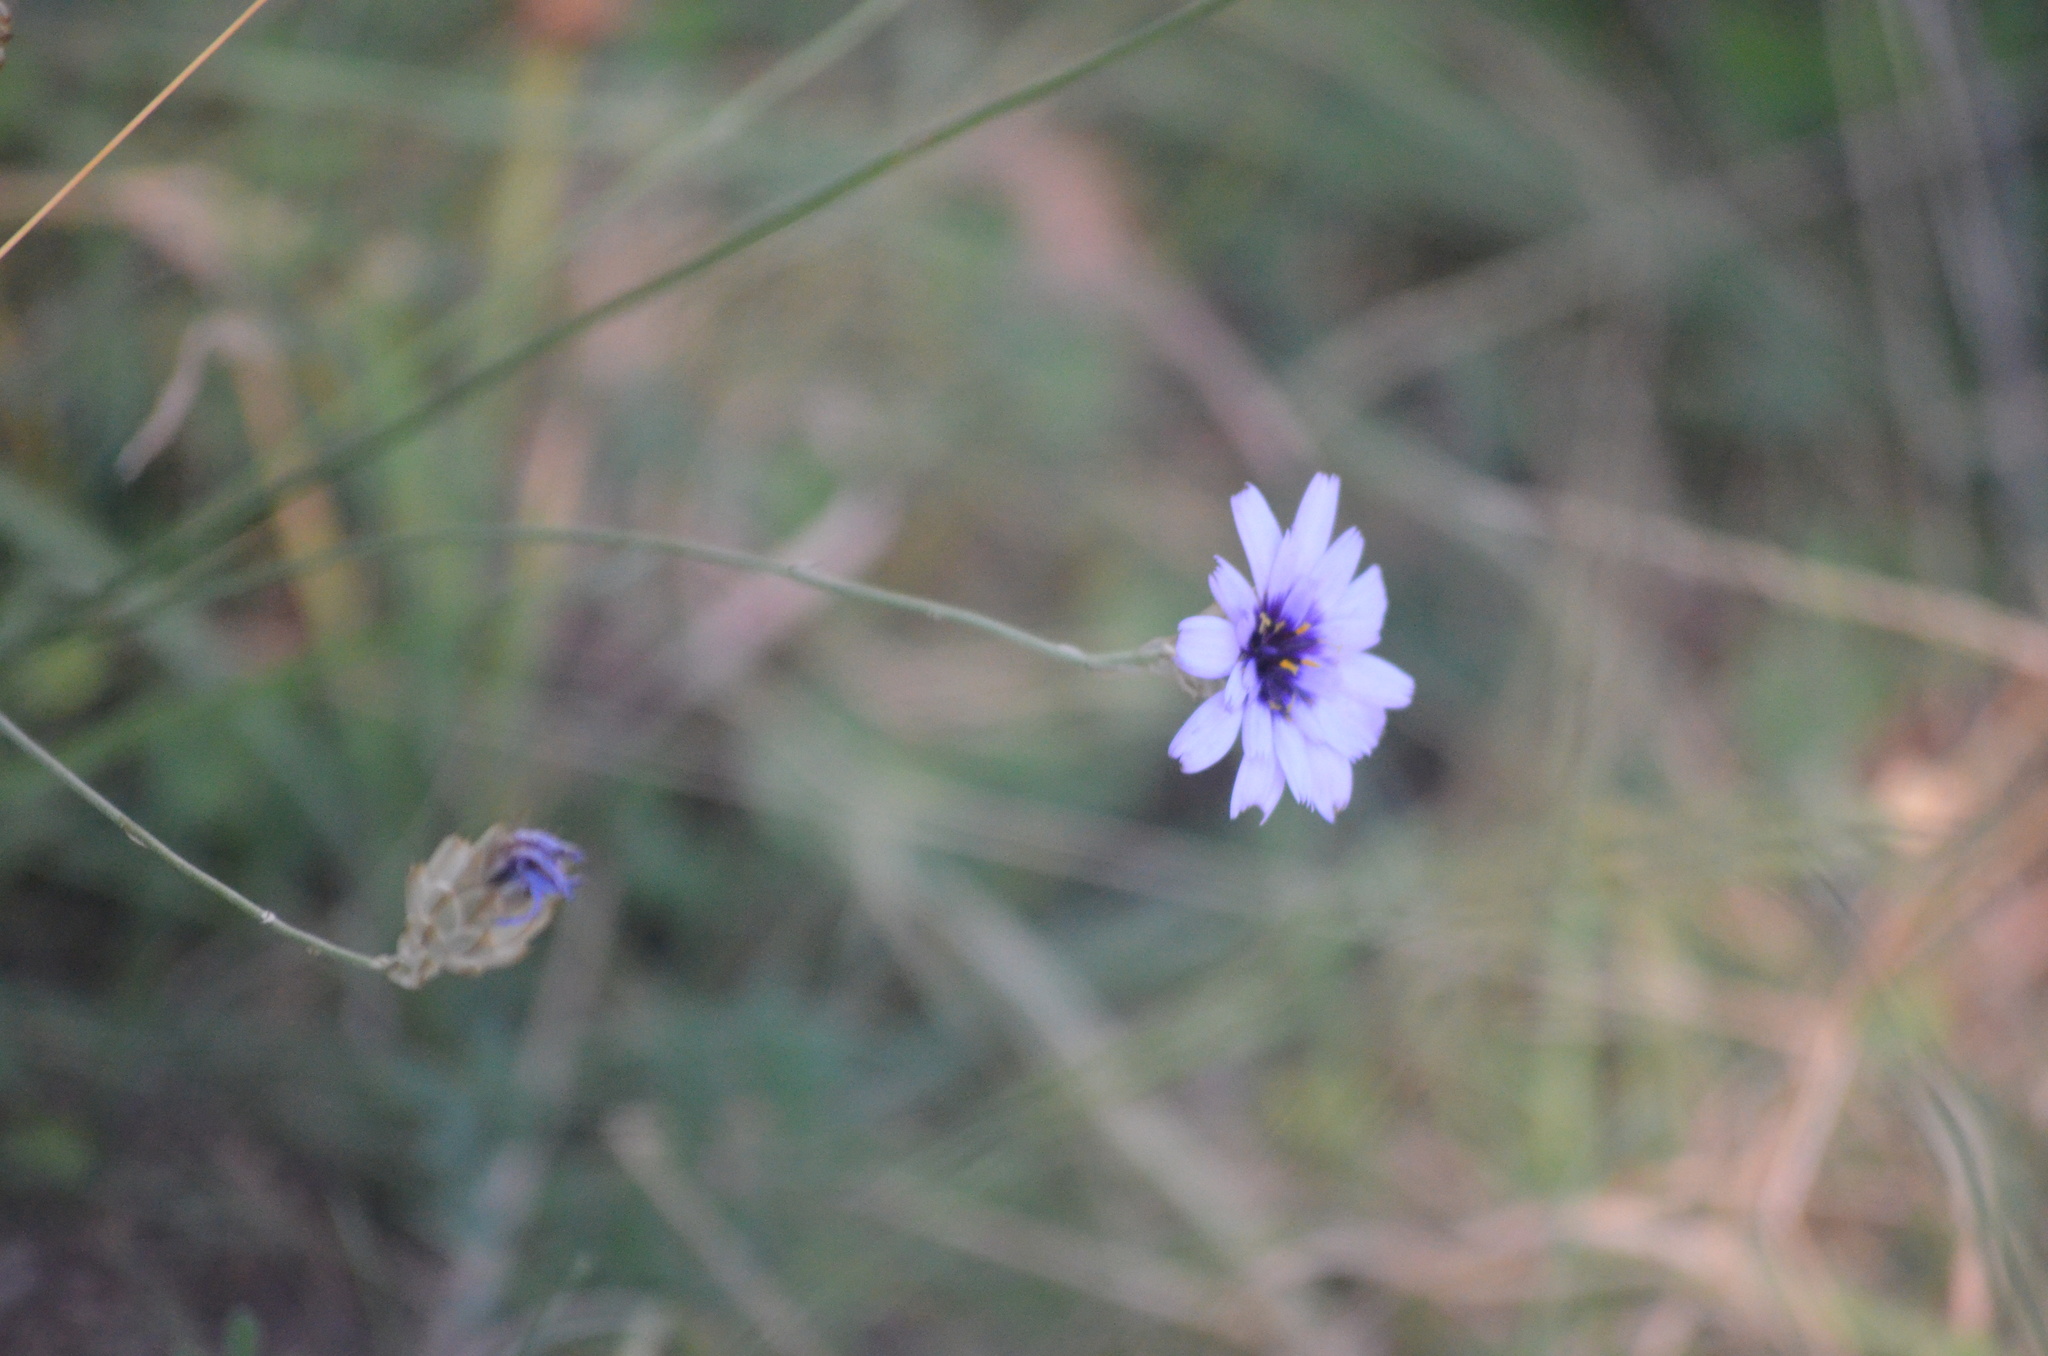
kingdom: Plantae
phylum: Tracheophyta
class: Magnoliopsida
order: Asterales
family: Asteraceae
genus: Catananche
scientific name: Catananche caerulea
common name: Blue cupidone
